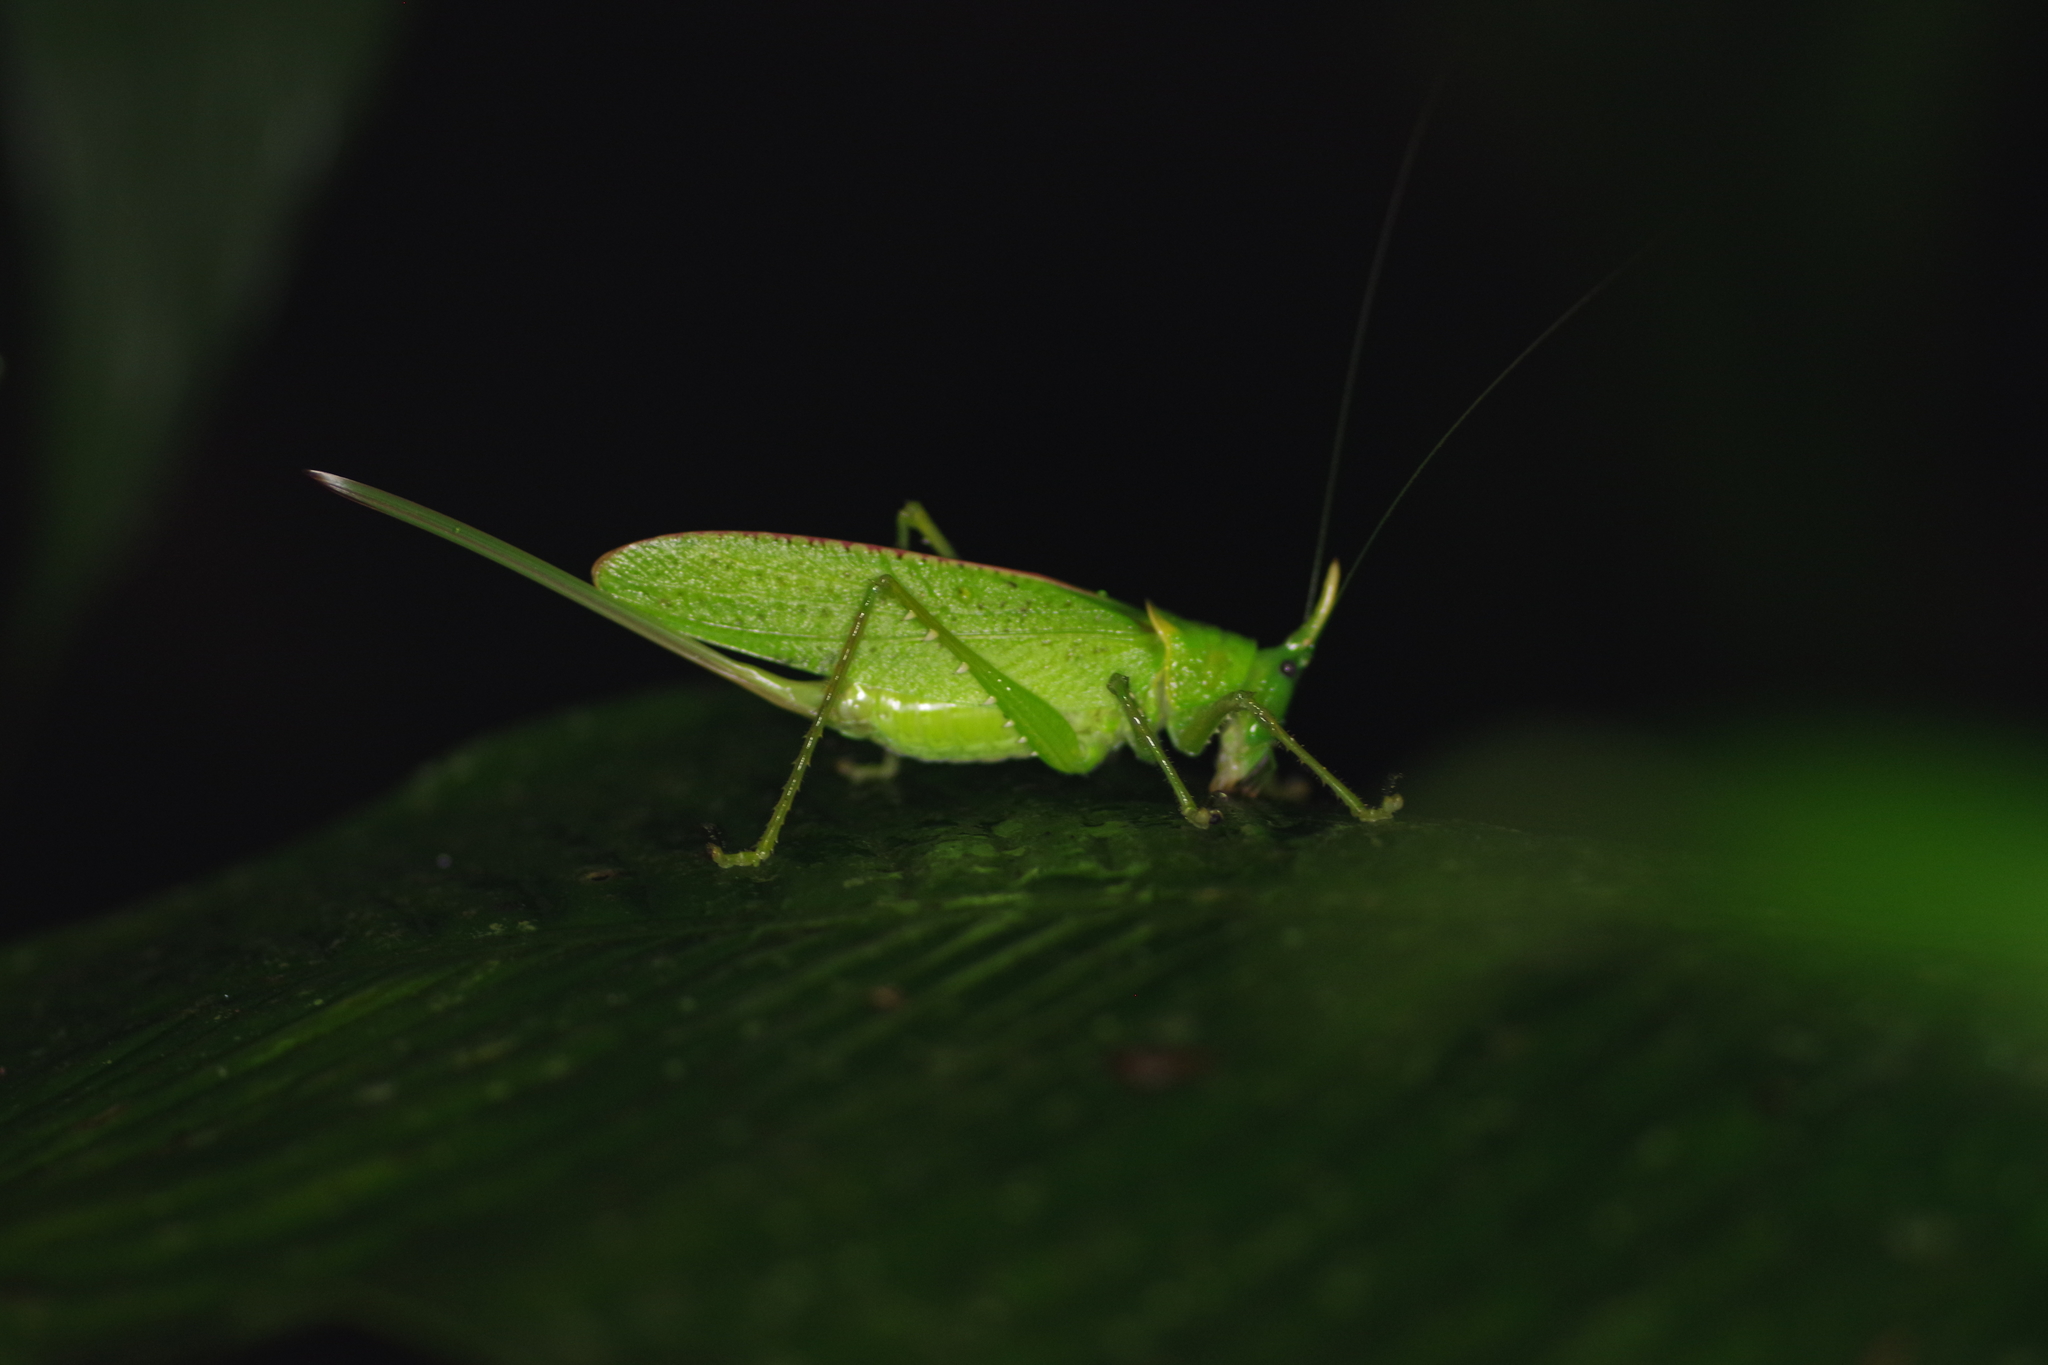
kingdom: Animalia
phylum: Arthropoda
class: Insecta
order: Orthoptera
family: Tettigoniidae
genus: Copiphora
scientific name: Copiphora rhinoceros
